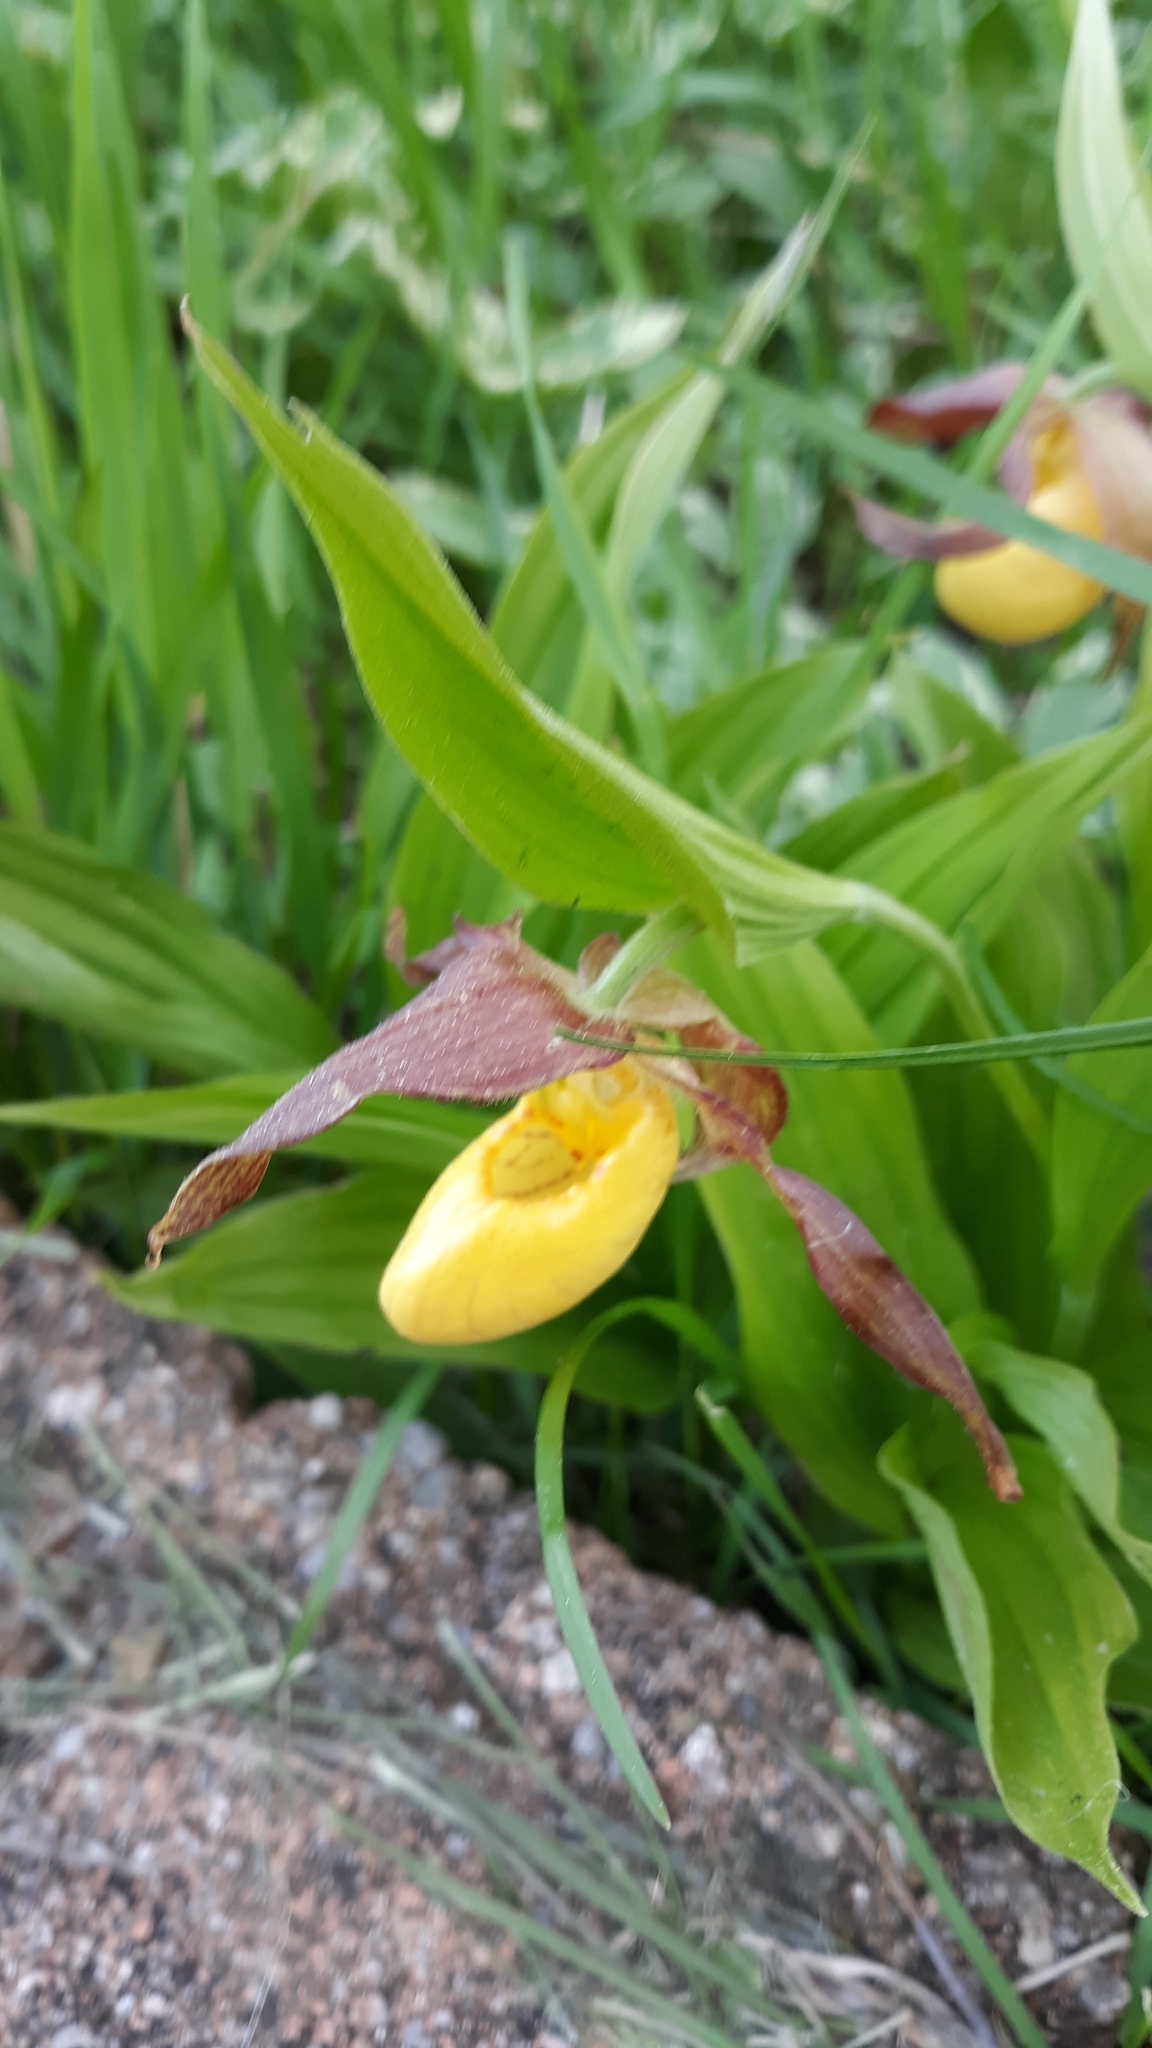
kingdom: Plantae
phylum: Tracheophyta
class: Liliopsida
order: Asparagales
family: Orchidaceae
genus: Cypripedium
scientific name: Cypripedium parviflorum
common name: American yellow lady's-slipper
